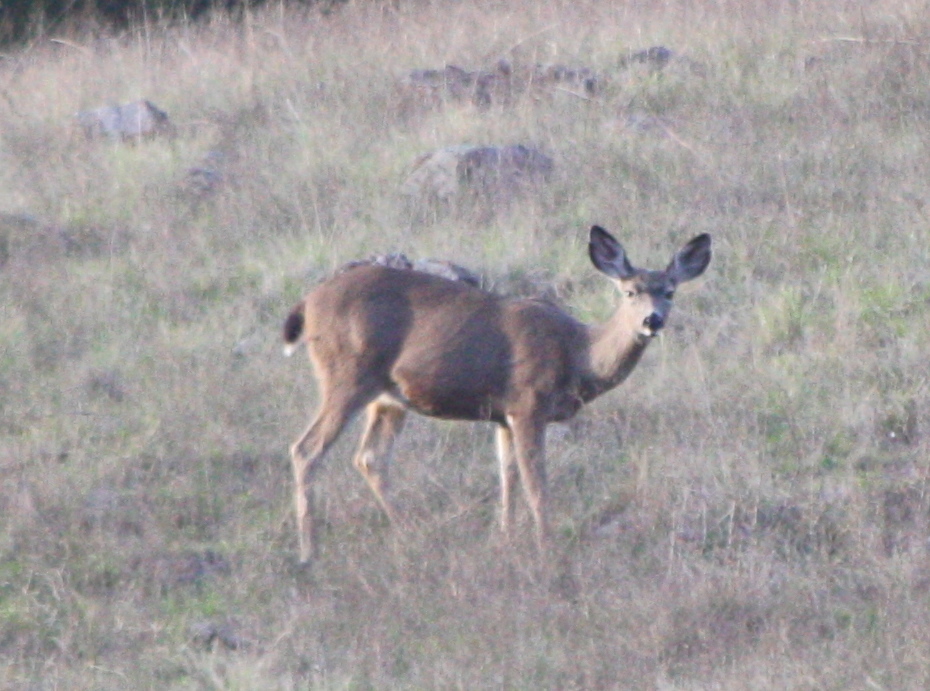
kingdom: Animalia
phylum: Chordata
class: Mammalia
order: Artiodactyla
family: Cervidae
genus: Odocoileus
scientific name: Odocoileus hemionus
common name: Mule deer
